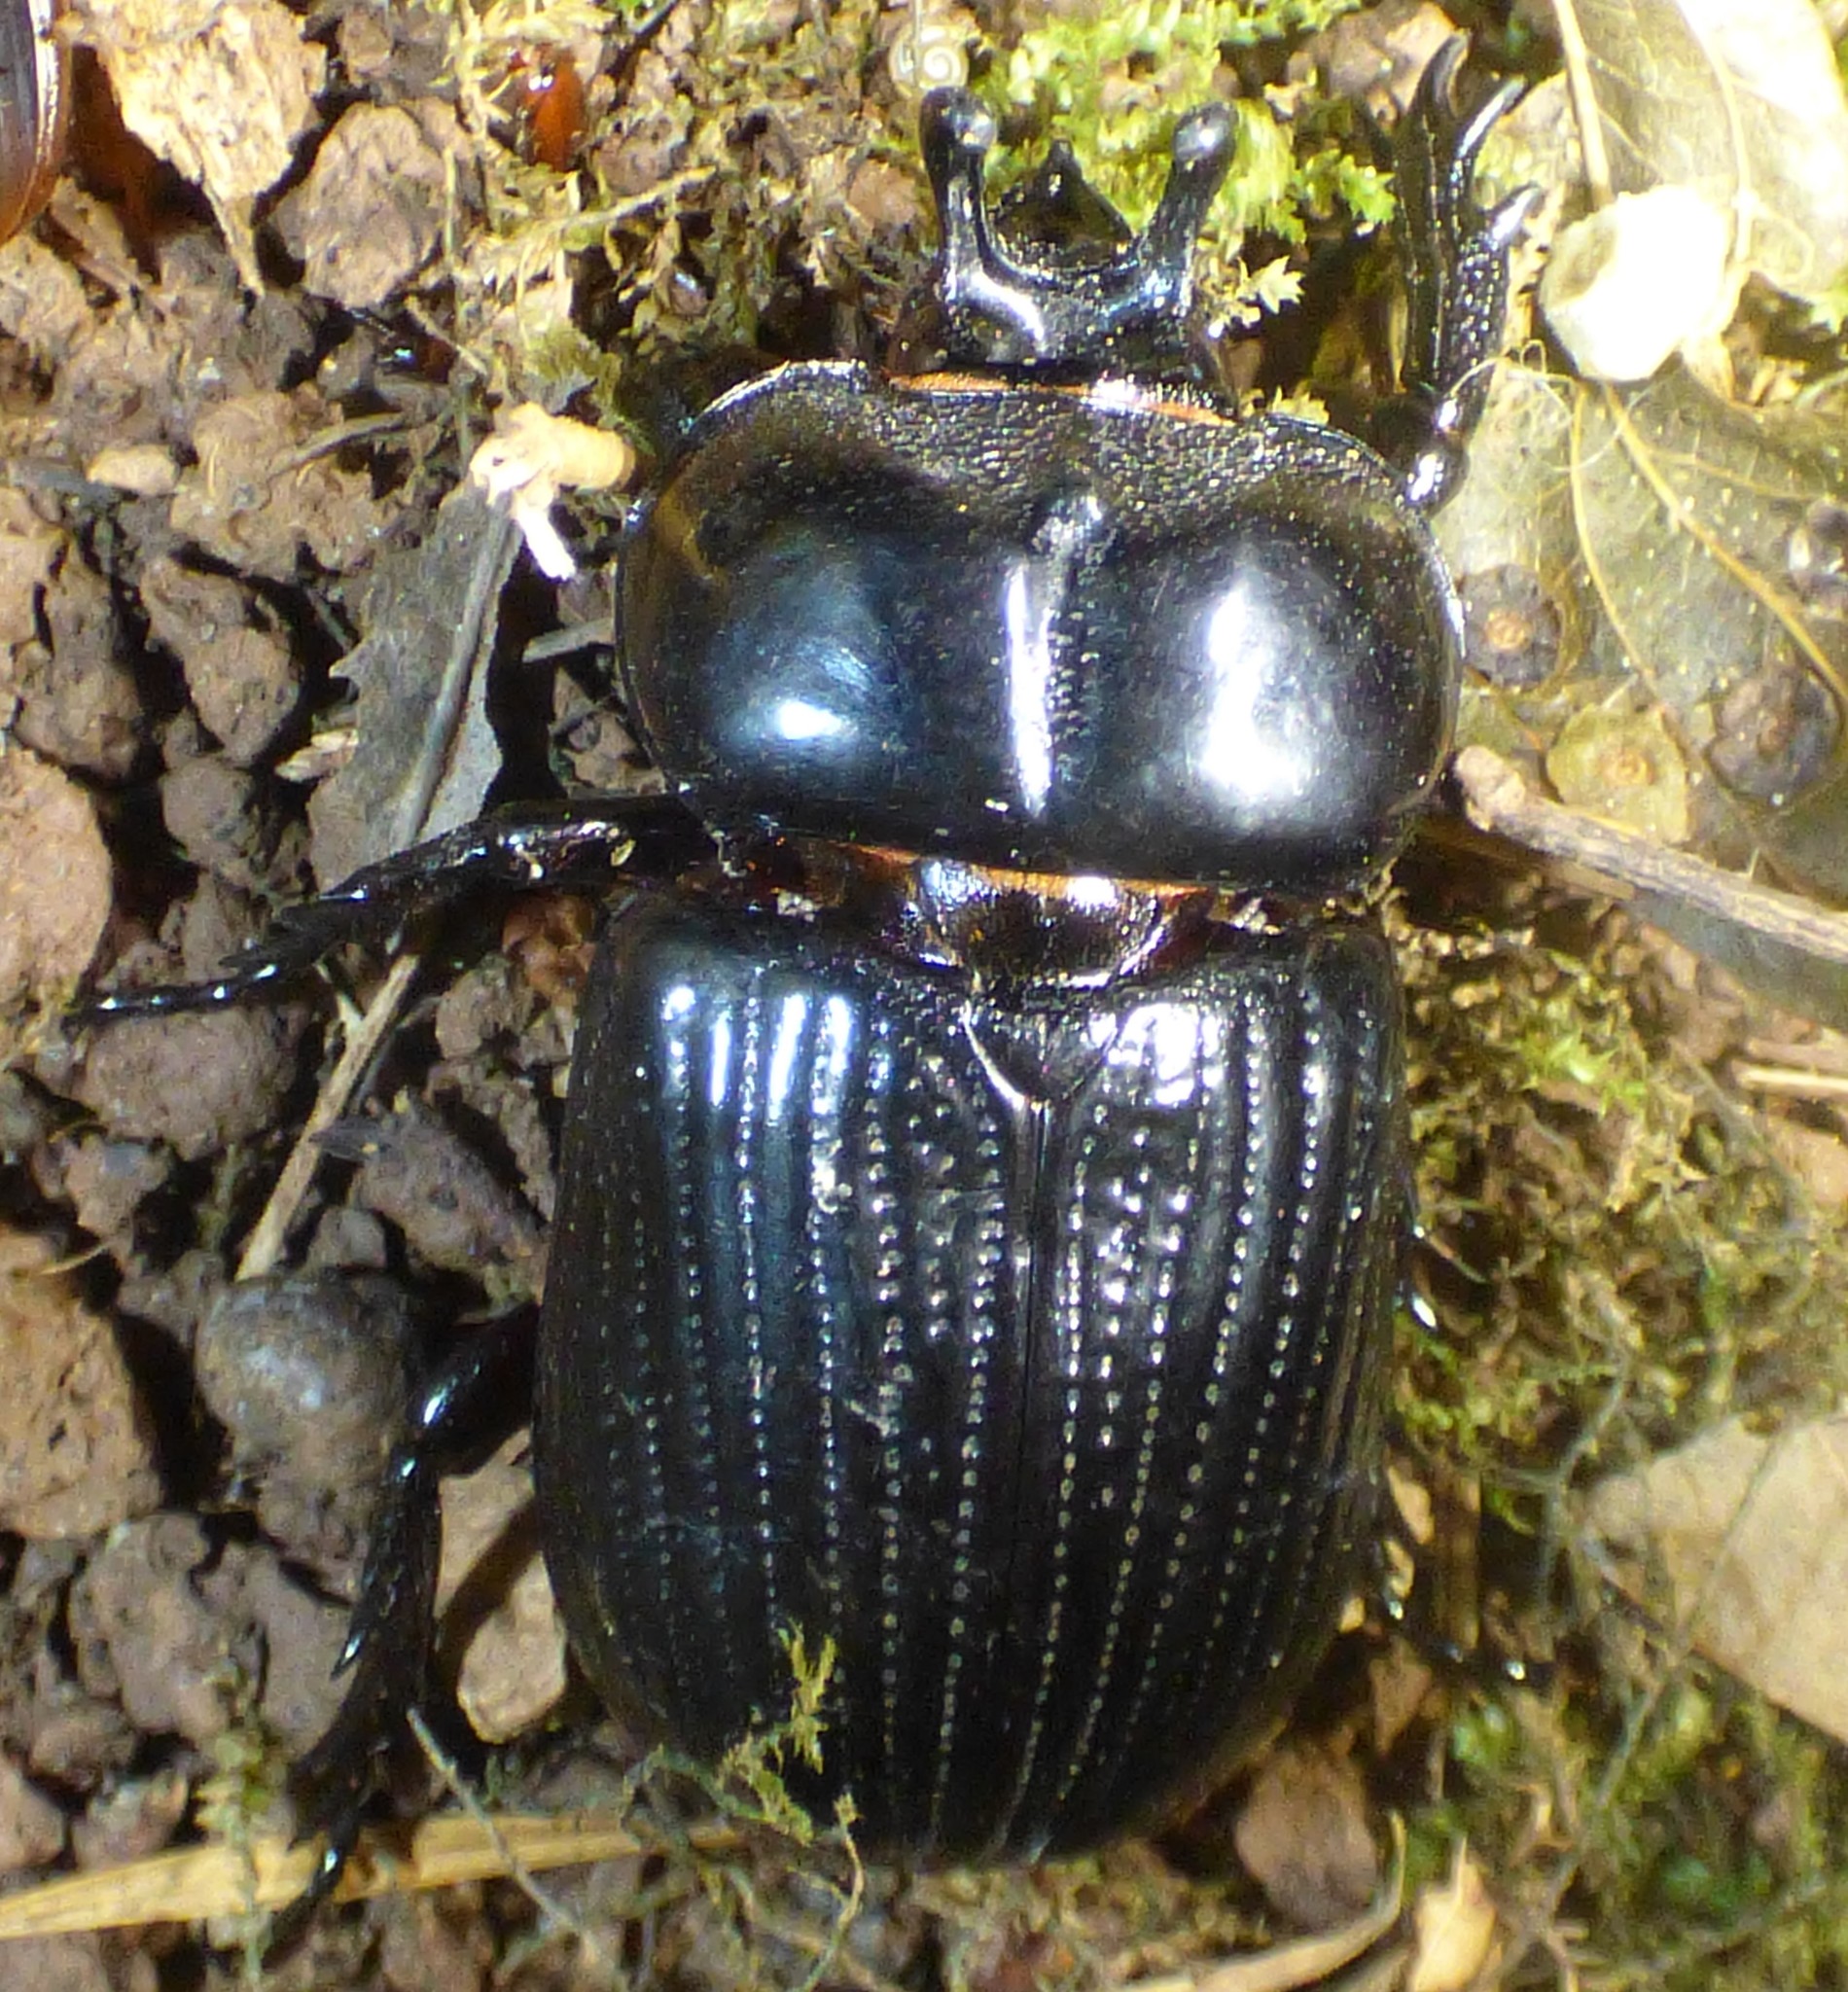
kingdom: Animalia
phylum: Arthropoda
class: Insecta
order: Coleoptera
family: Scarabaeidae
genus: Phileurus
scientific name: Phileurus truncatus
